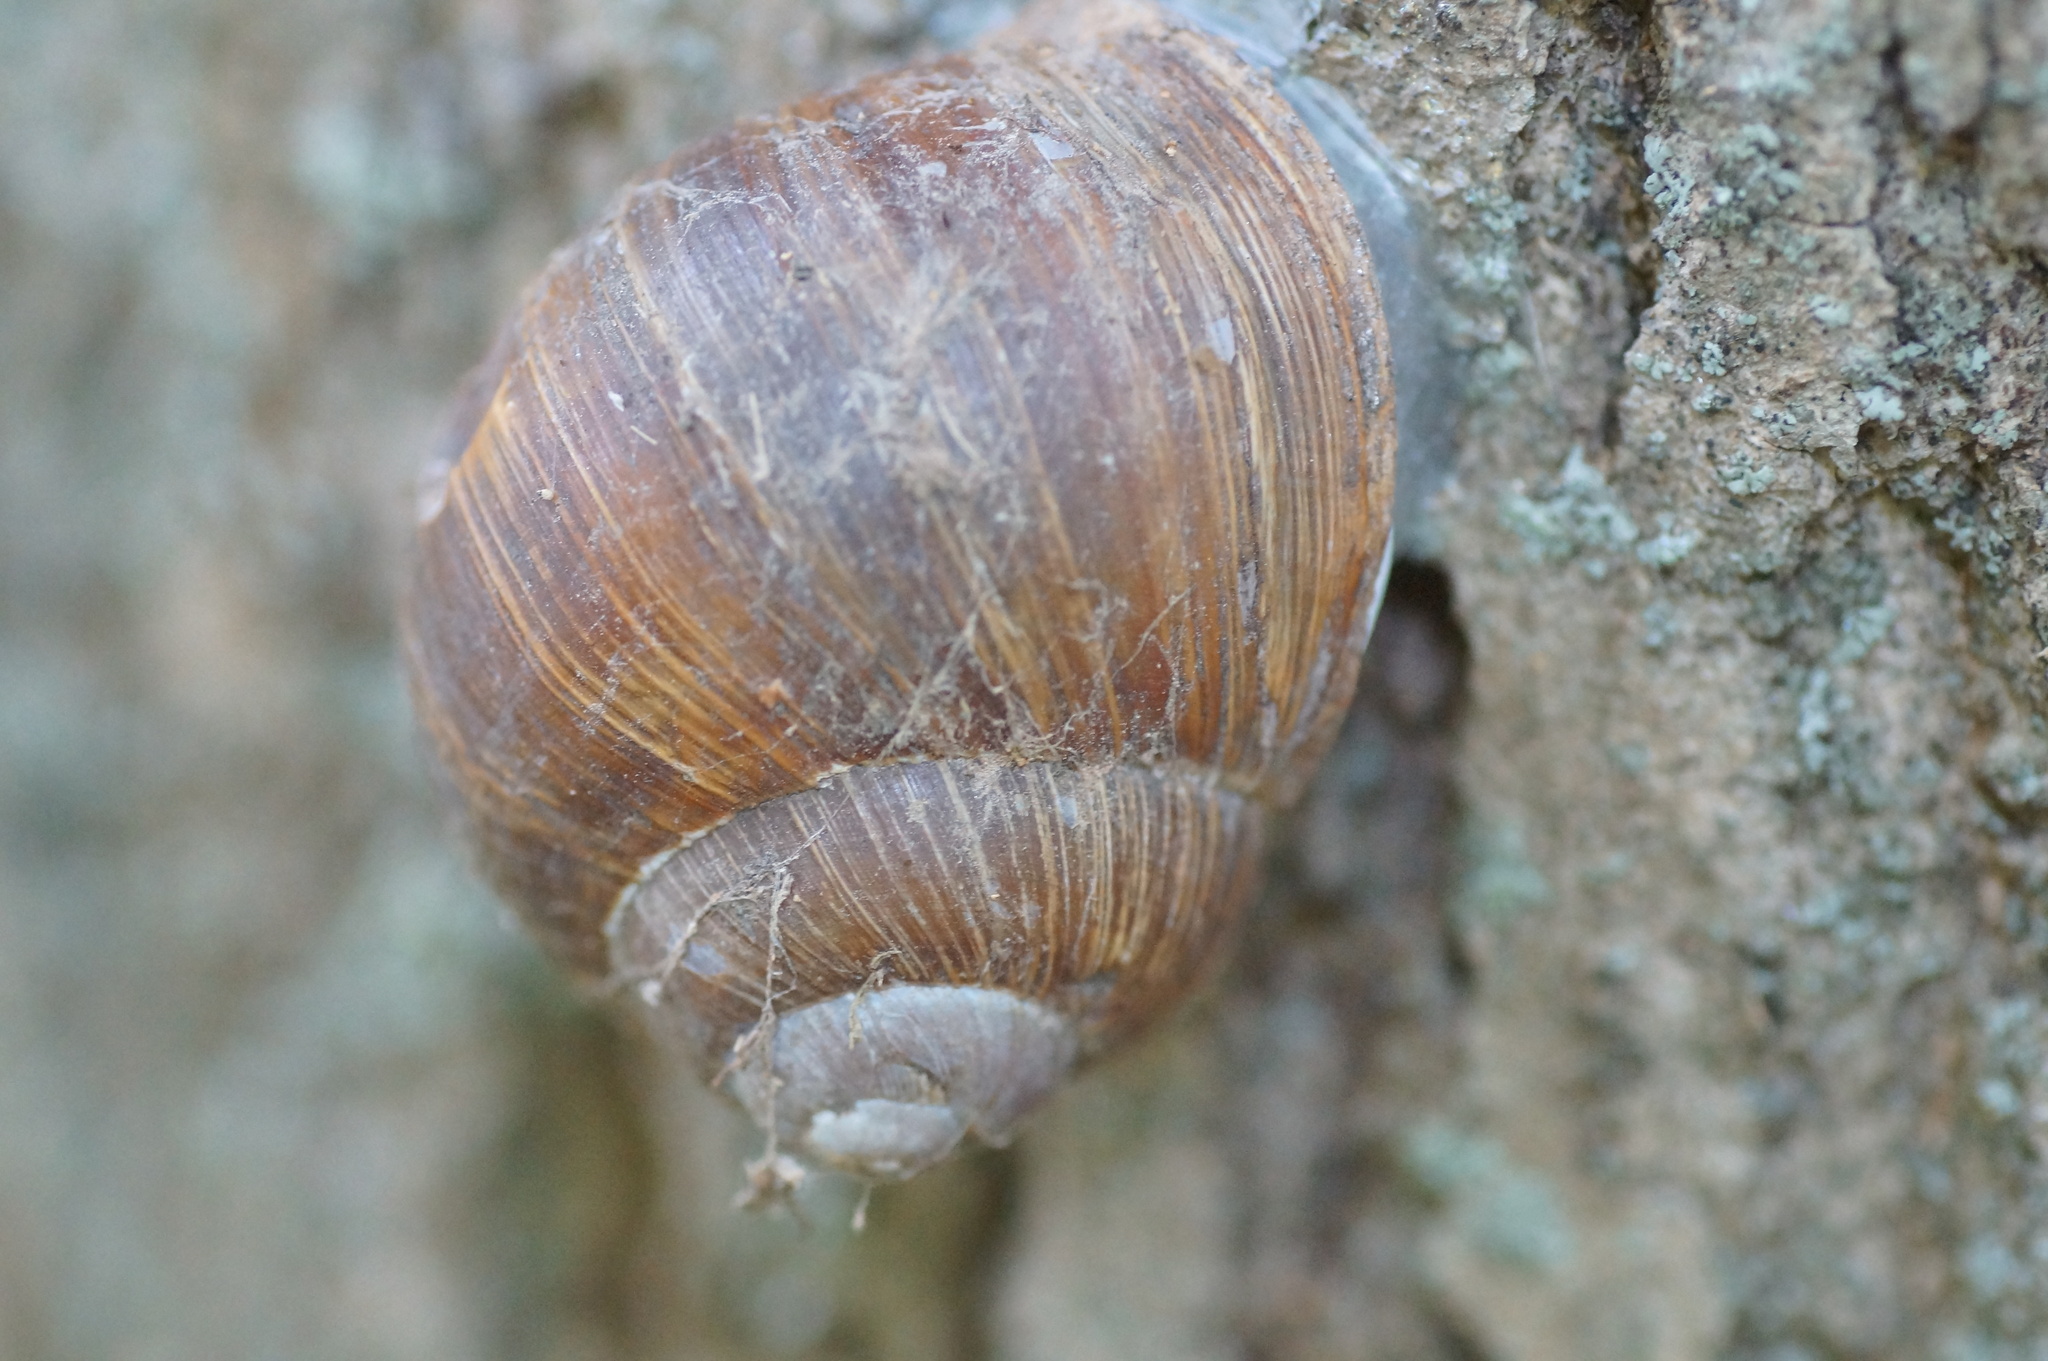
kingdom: Animalia
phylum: Mollusca
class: Gastropoda
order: Stylommatophora
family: Helicidae
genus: Helix
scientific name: Helix pomatia
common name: Roman snail
